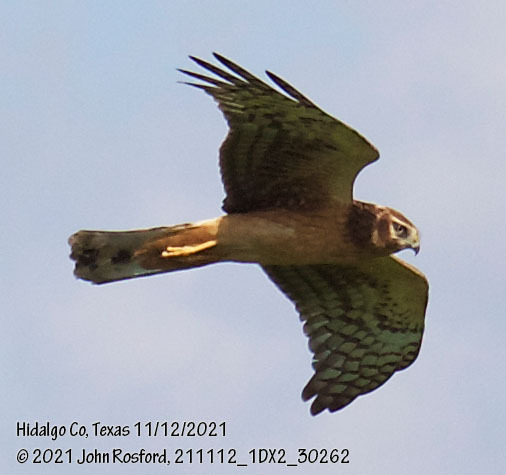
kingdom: Animalia
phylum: Chordata
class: Aves
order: Accipitriformes
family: Accipitridae
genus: Circus
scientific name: Circus cyaneus
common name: Hen harrier
